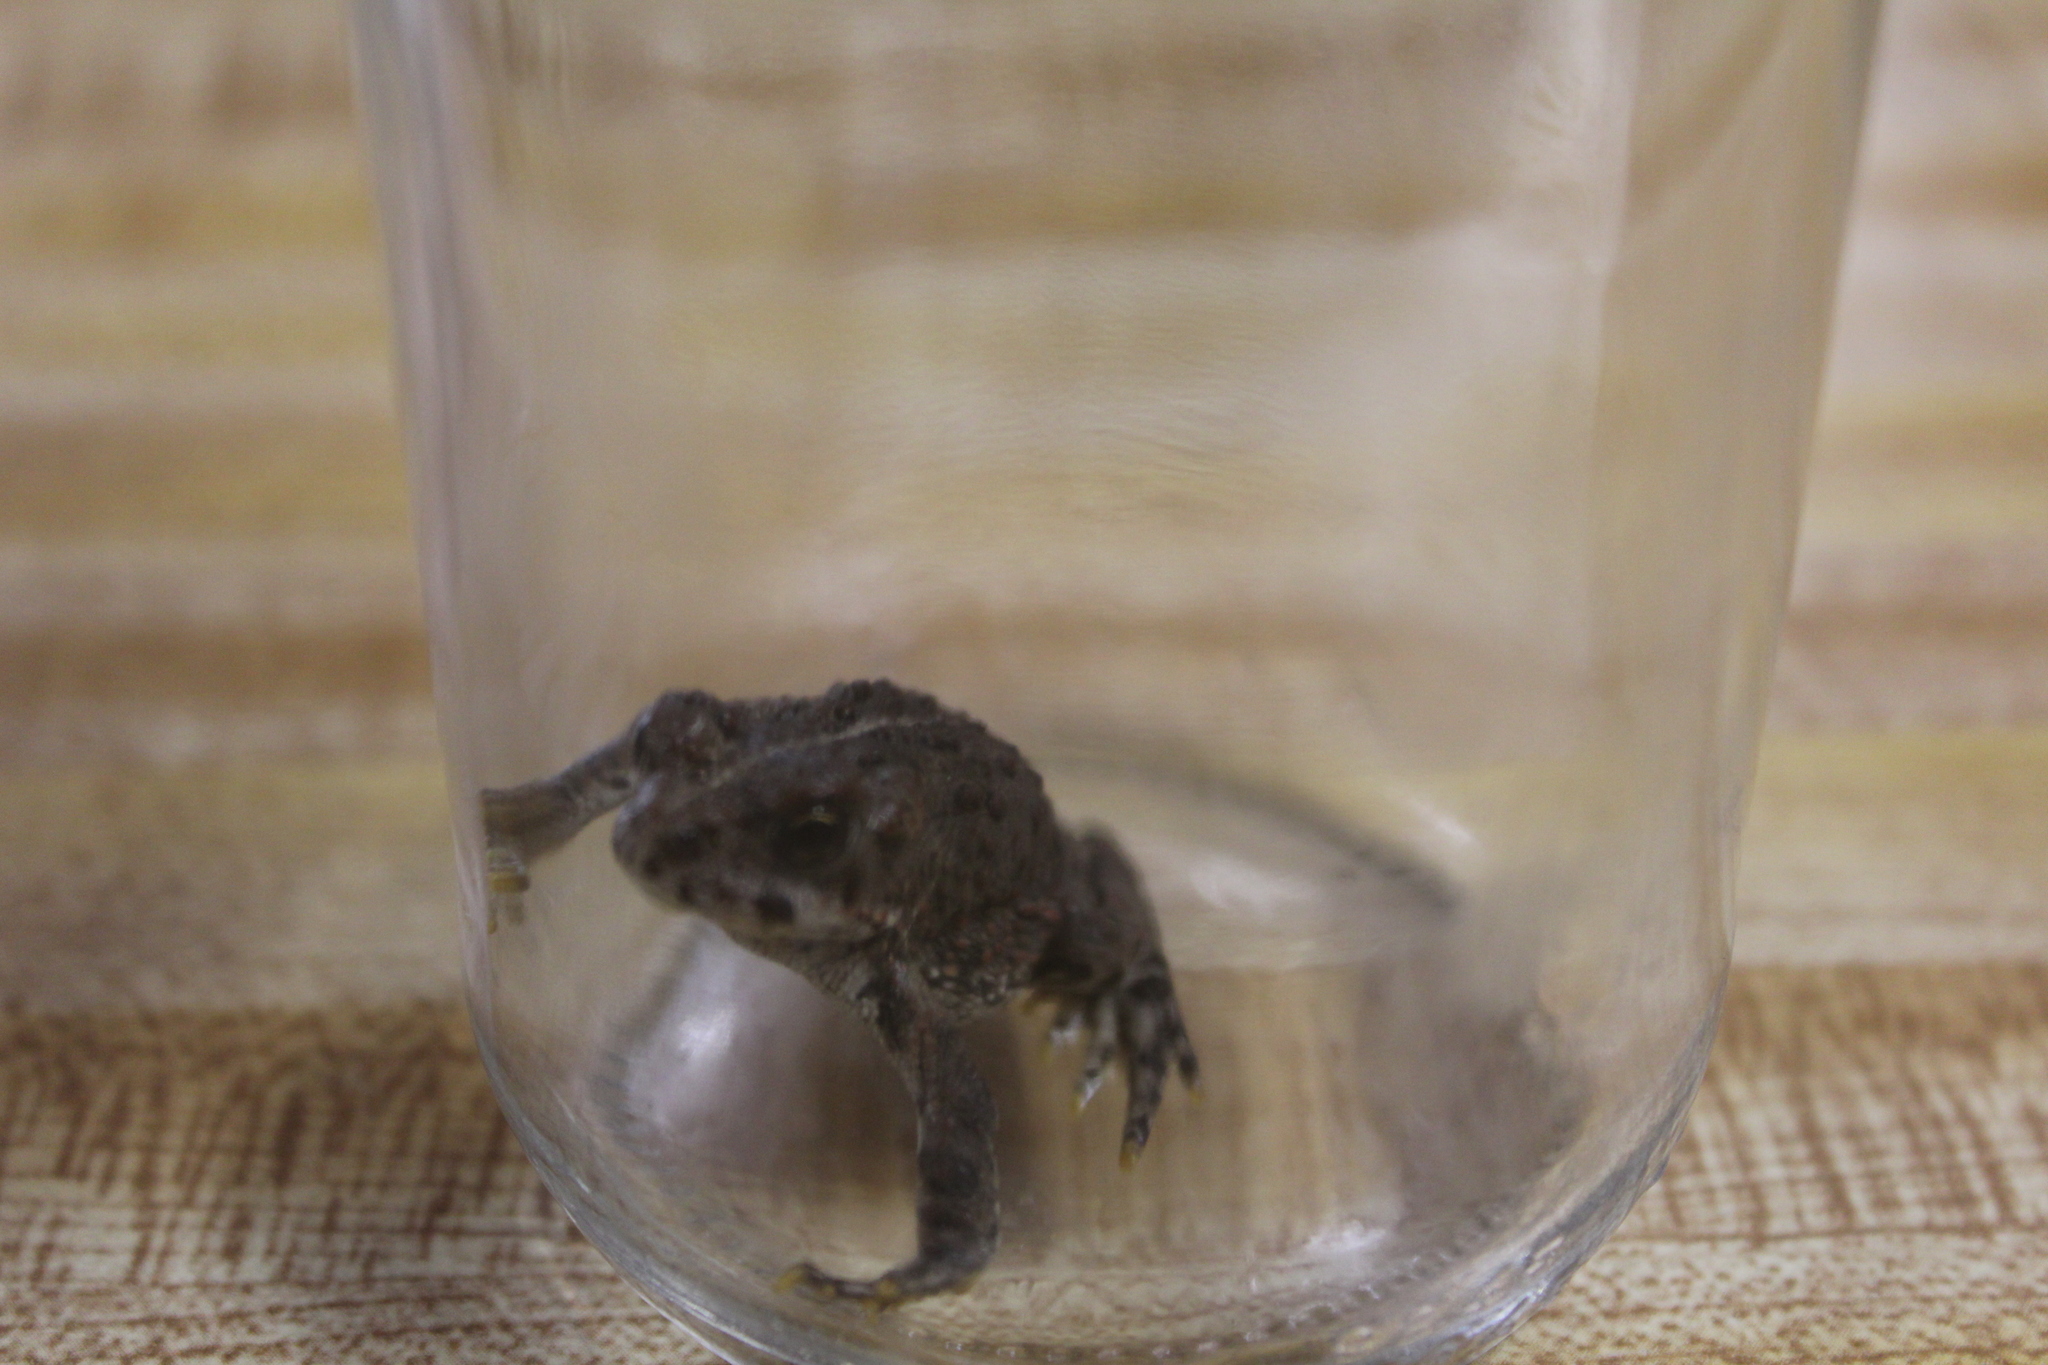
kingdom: Animalia
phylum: Chordata
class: Amphibia
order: Anura
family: Bufonidae
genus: Anaxyrus
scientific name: Anaxyrus boreas
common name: Western toad
